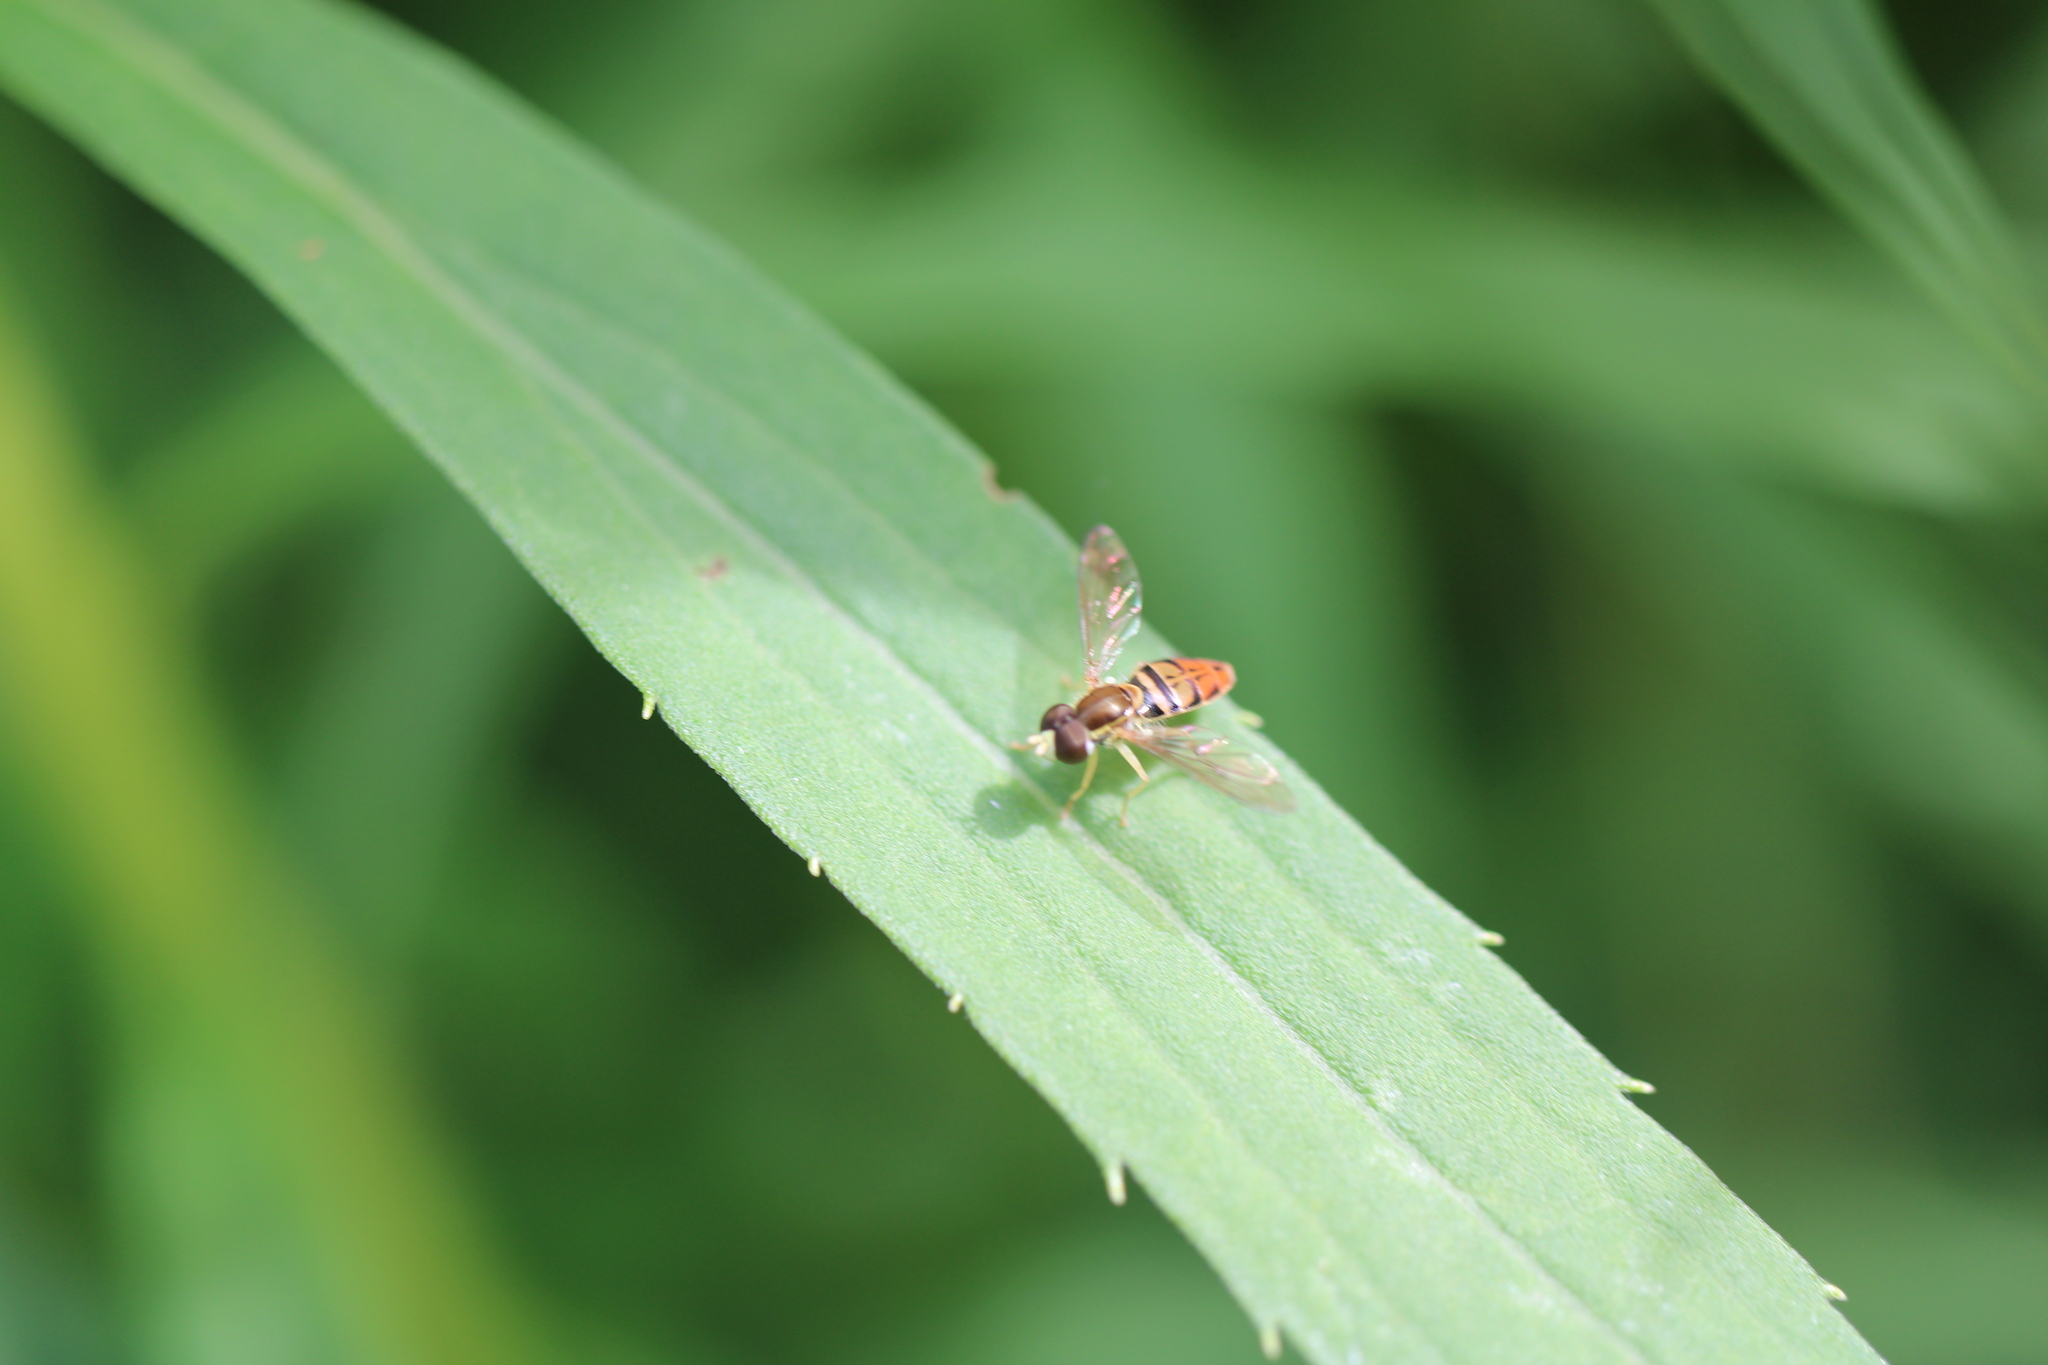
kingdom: Animalia
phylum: Arthropoda
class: Insecta
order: Diptera
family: Syrphidae
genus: Toxomerus
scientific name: Toxomerus marginatus
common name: Syrphid fly
